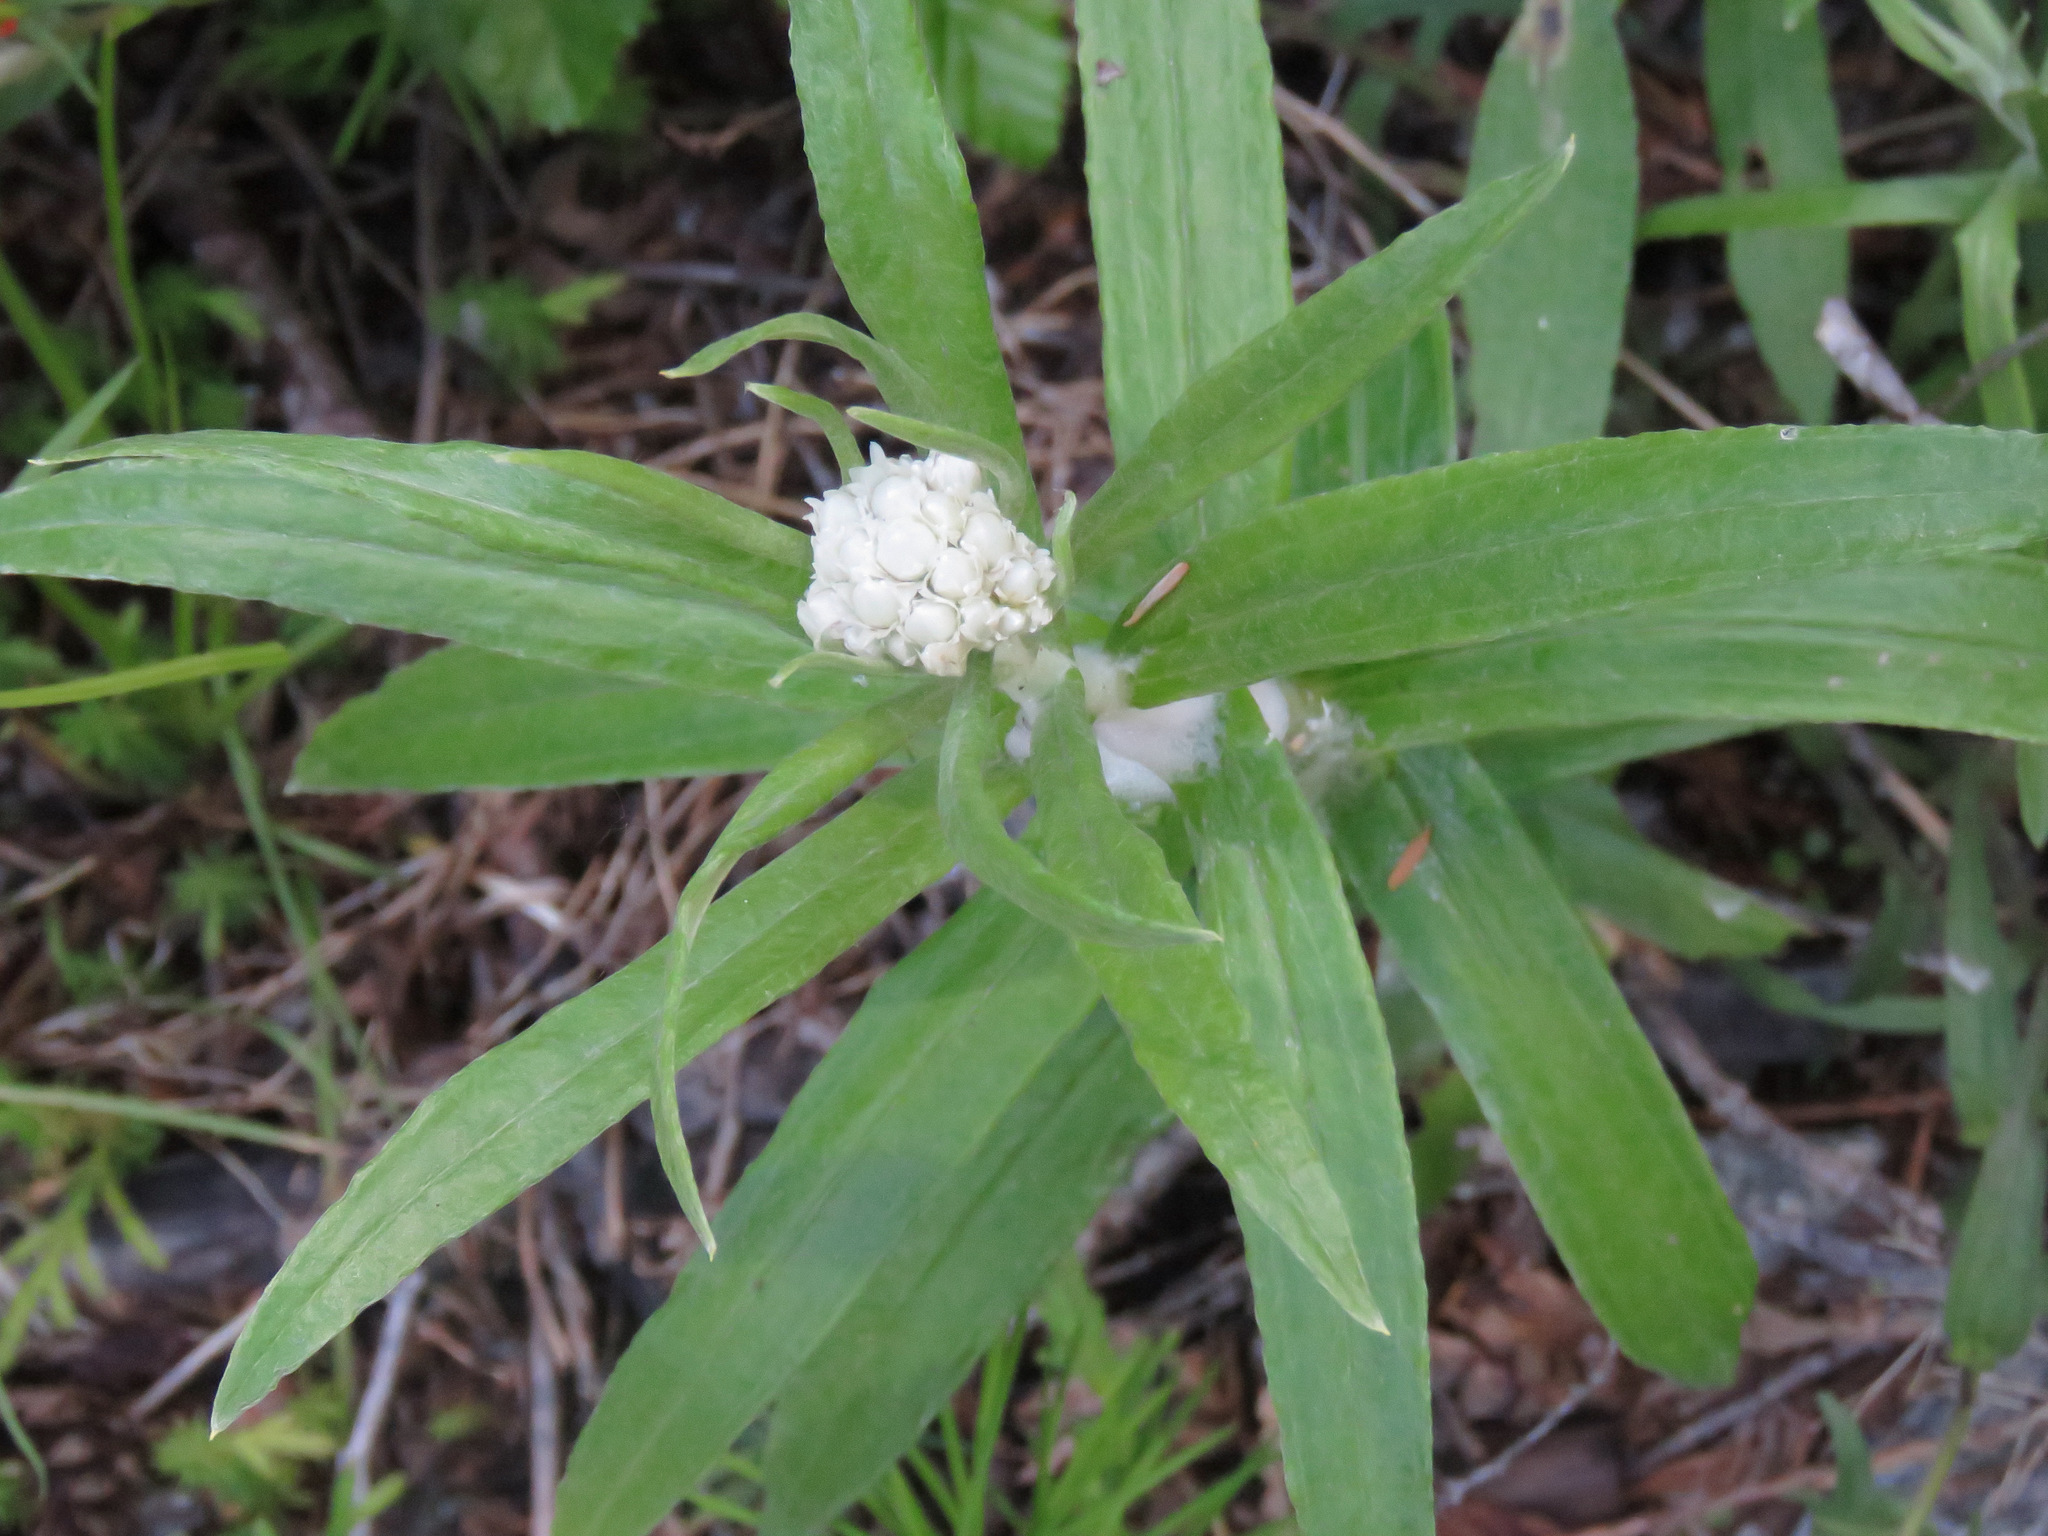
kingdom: Plantae
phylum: Tracheophyta
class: Magnoliopsida
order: Asterales
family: Asteraceae
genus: Anaphalis
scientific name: Anaphalis margaritacea
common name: Pearly everlasting
